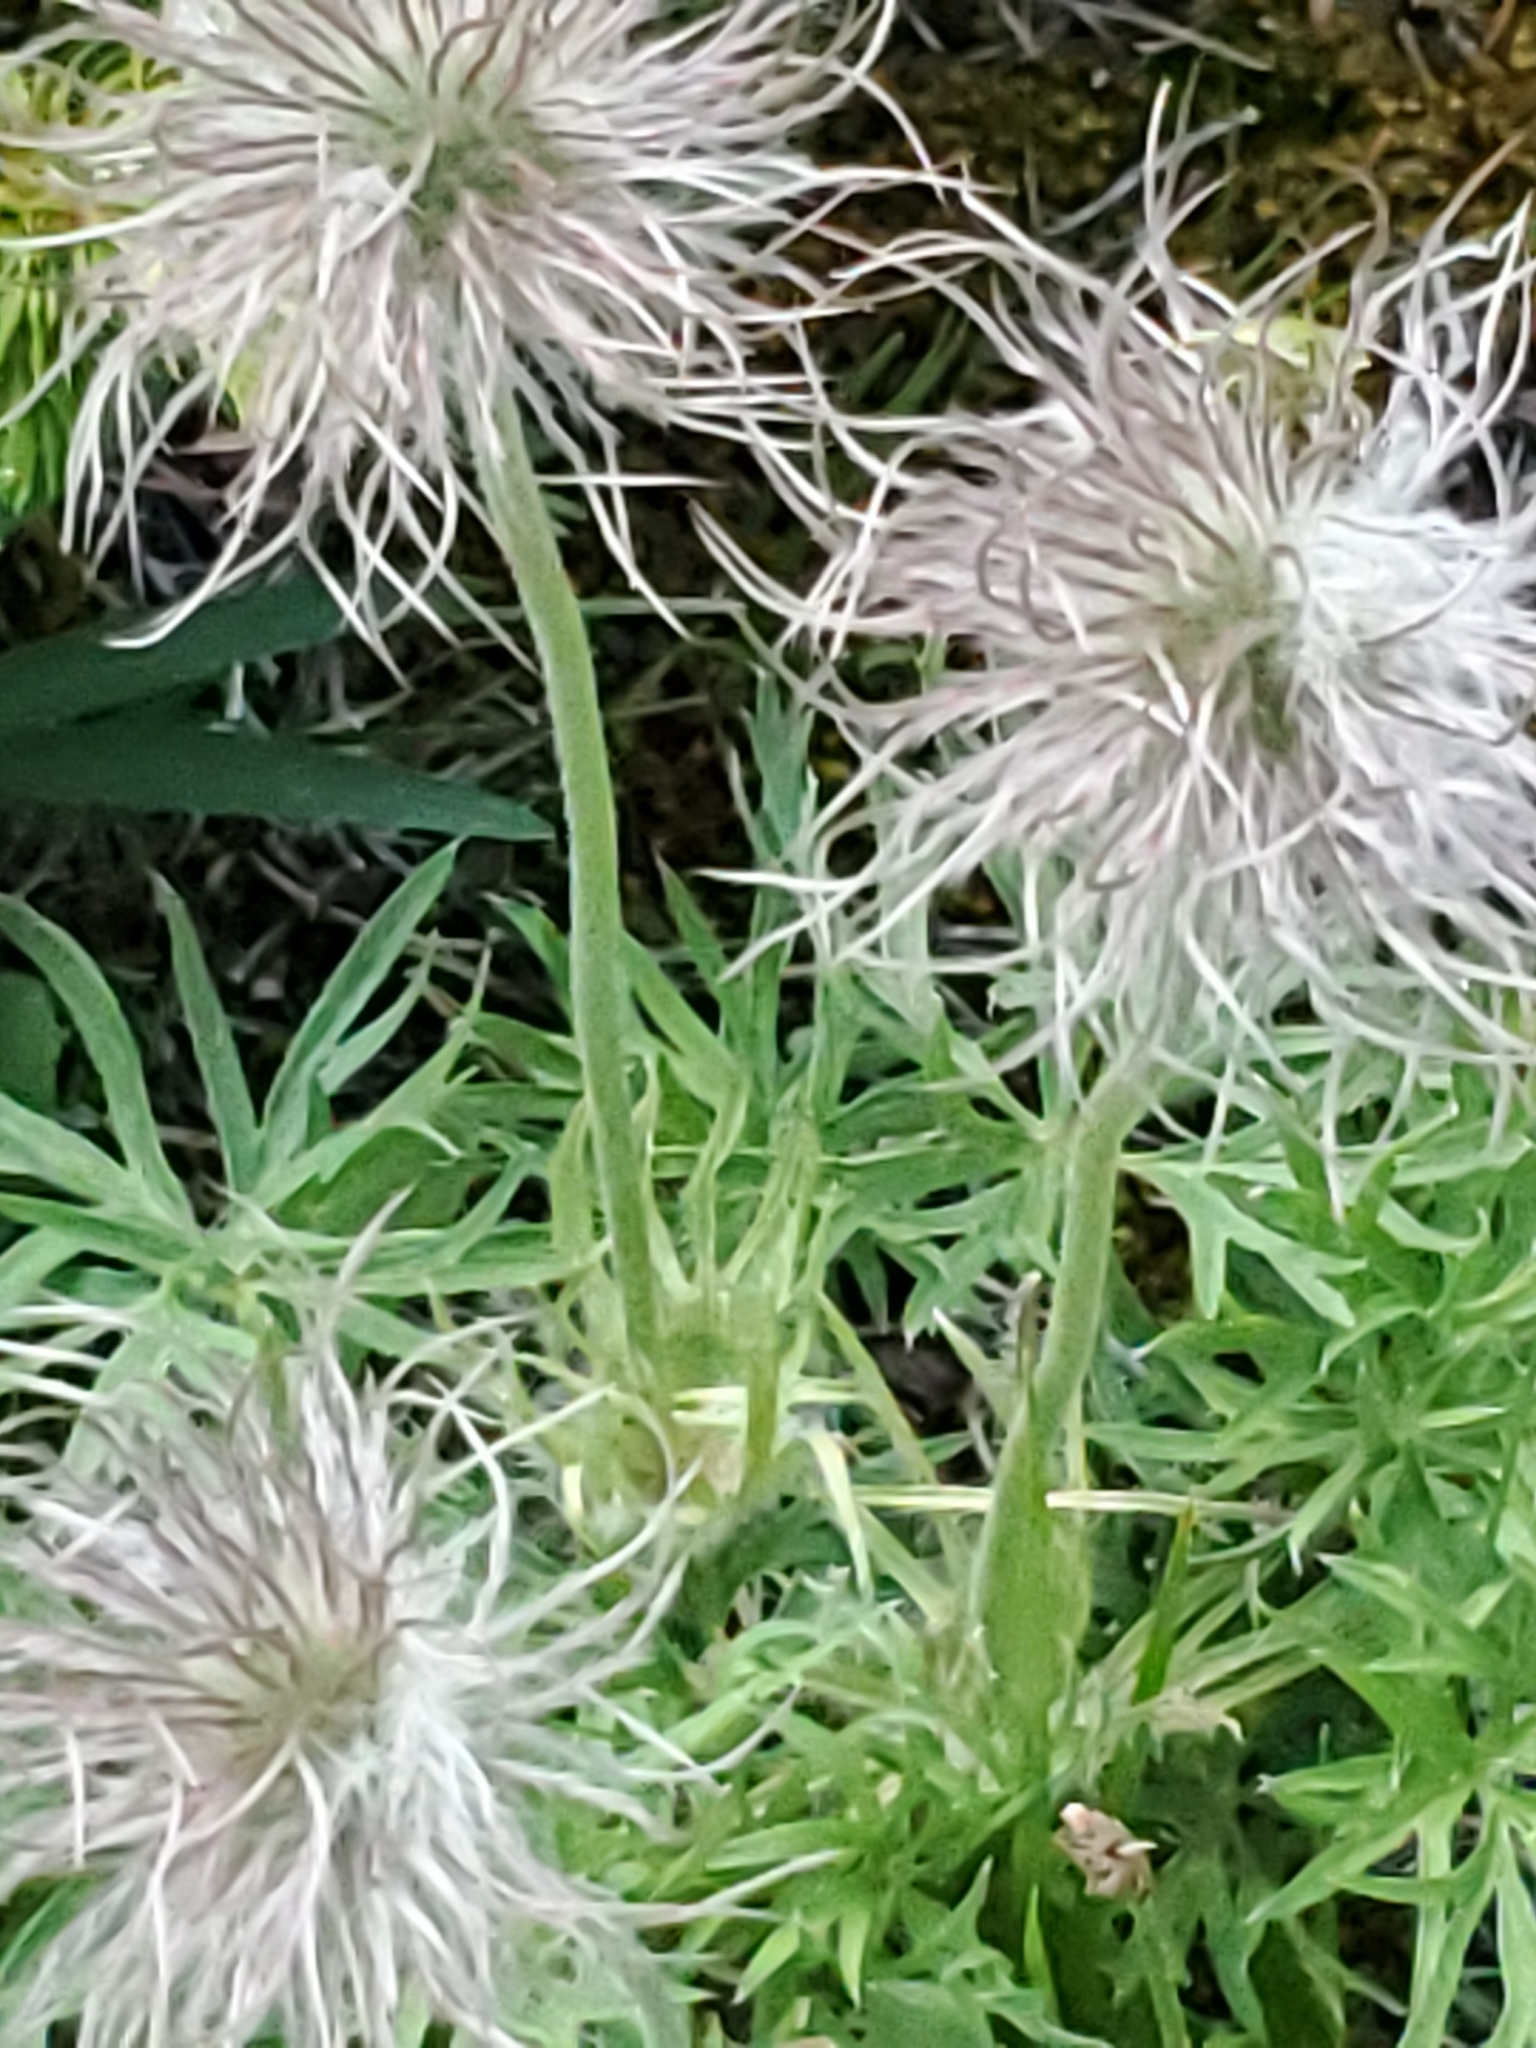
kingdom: Plantae
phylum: Tracheophyta
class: Magnoliopsida
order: Ranunculales
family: Ranunculaceae
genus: Pulsatilla
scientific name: Pulsatilla nuttalliana
